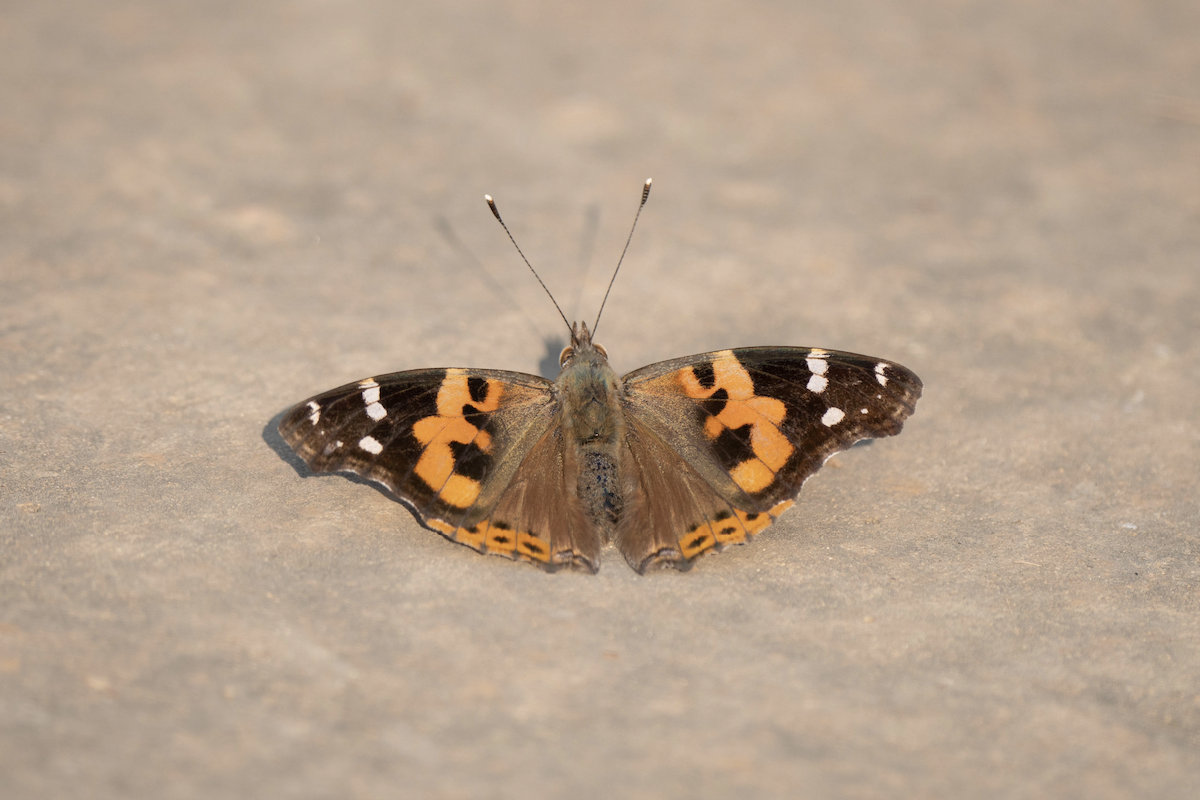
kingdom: Animalia
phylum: Arthropoda
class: Insecta
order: Lepidoptera
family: Nymphalidae
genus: Vanessa
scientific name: Vanessa indica
